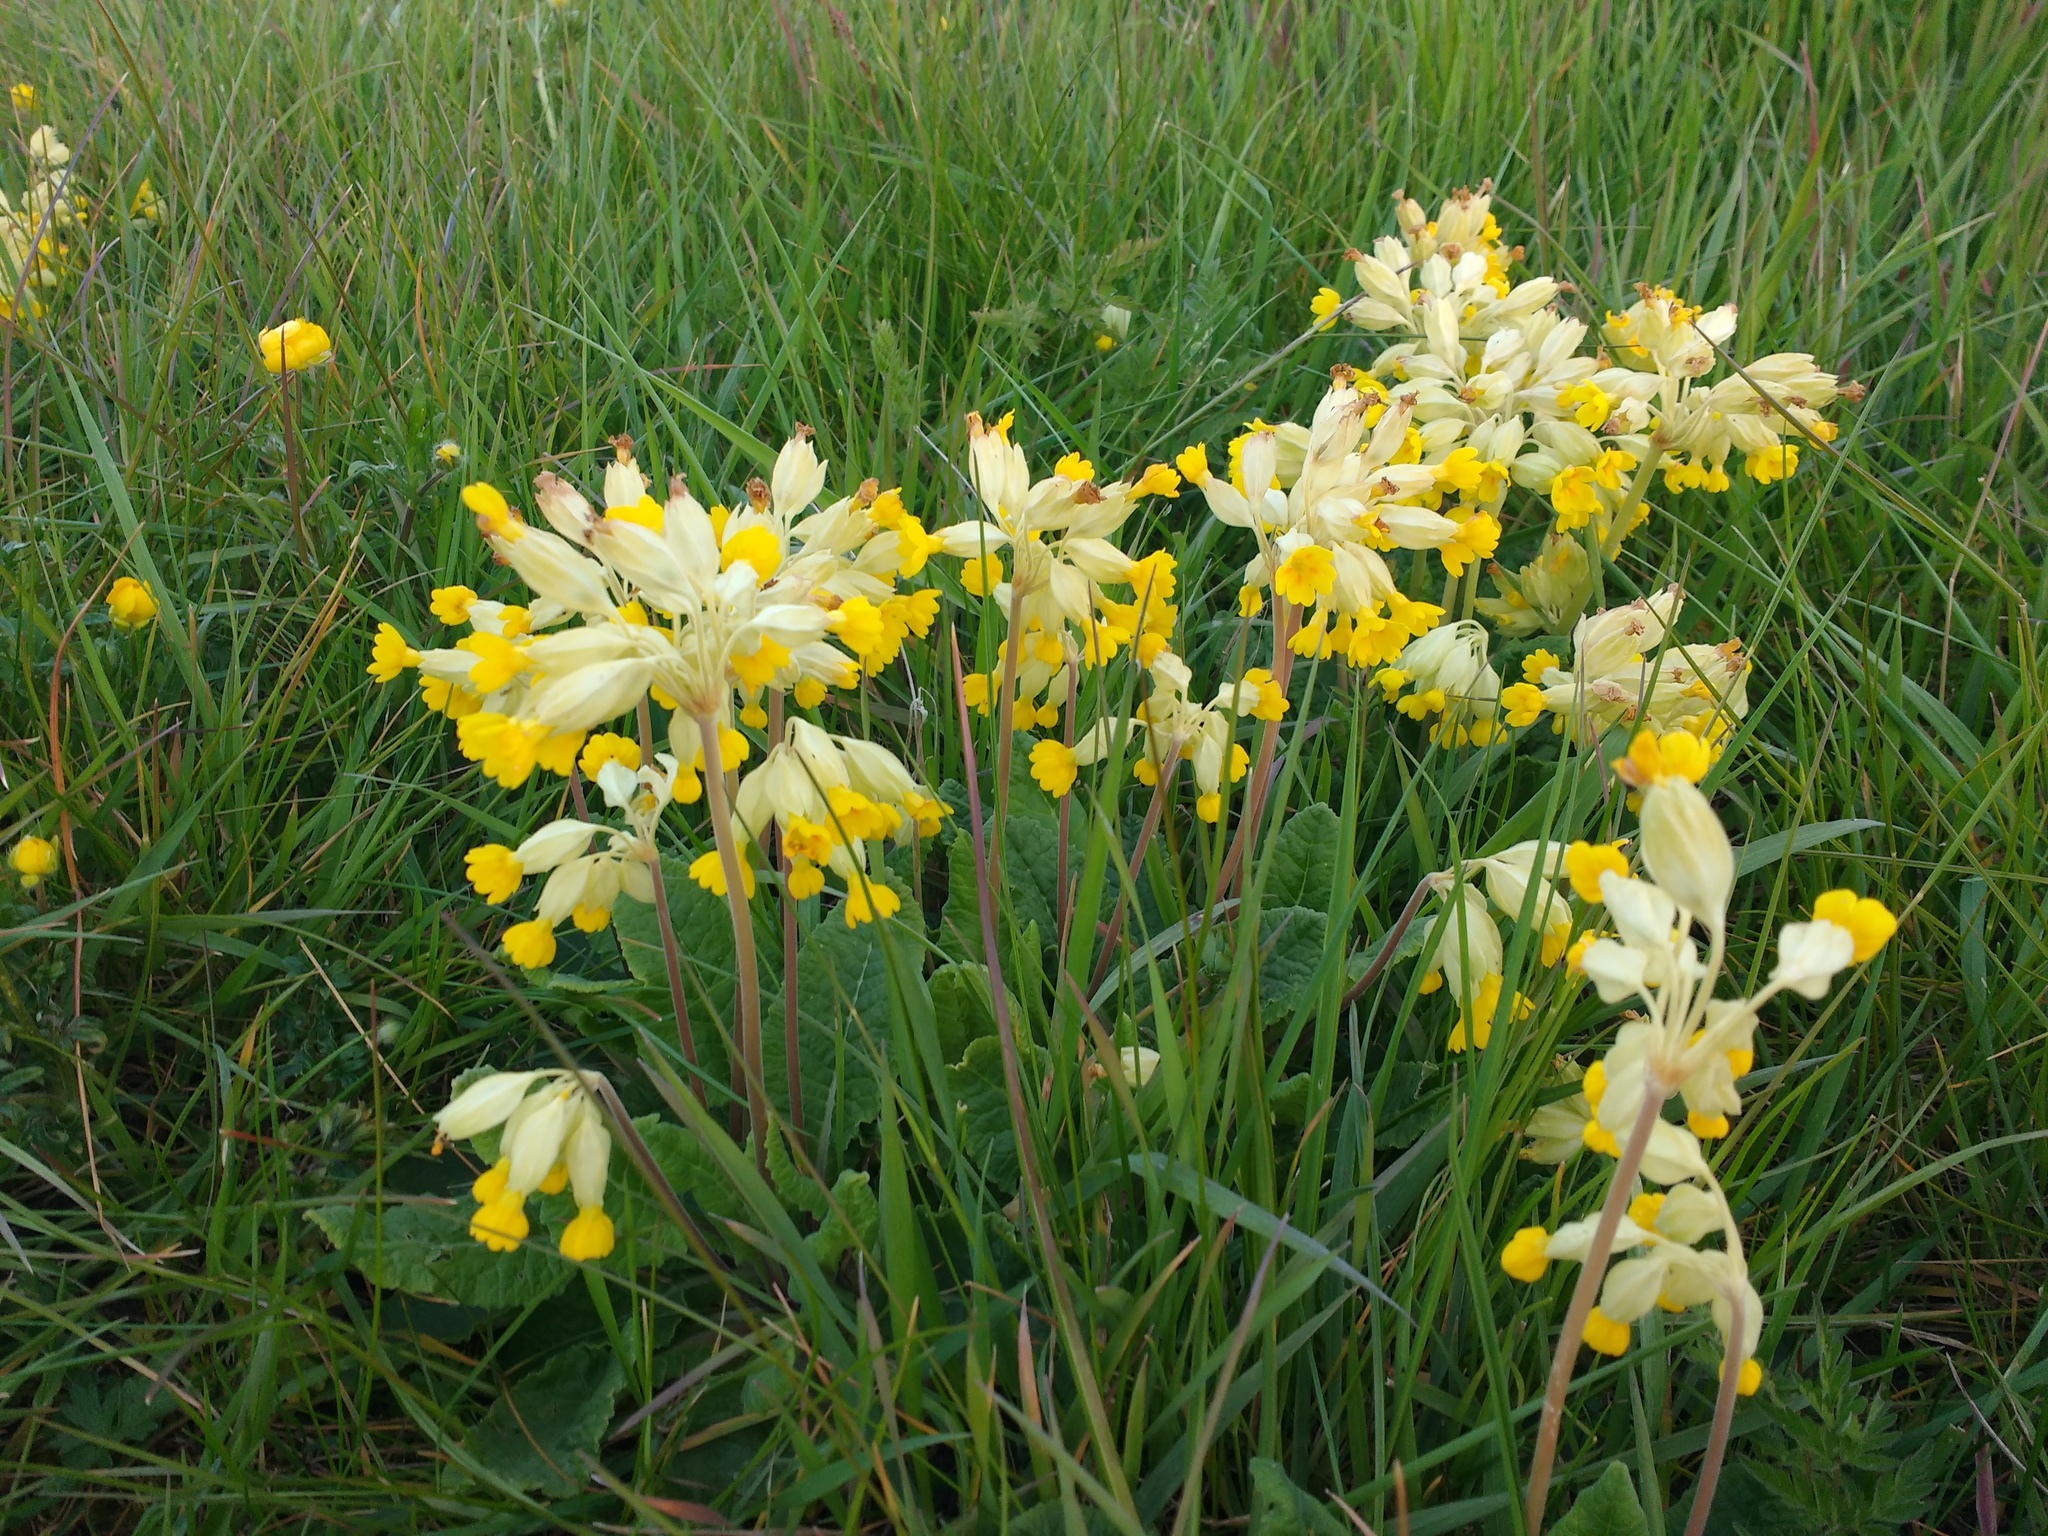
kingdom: Plantae
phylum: Tracheophyta
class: Magnoliopsida
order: Ericales
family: Primulaceae
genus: Primula
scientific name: Primula veris
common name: Cowslip
